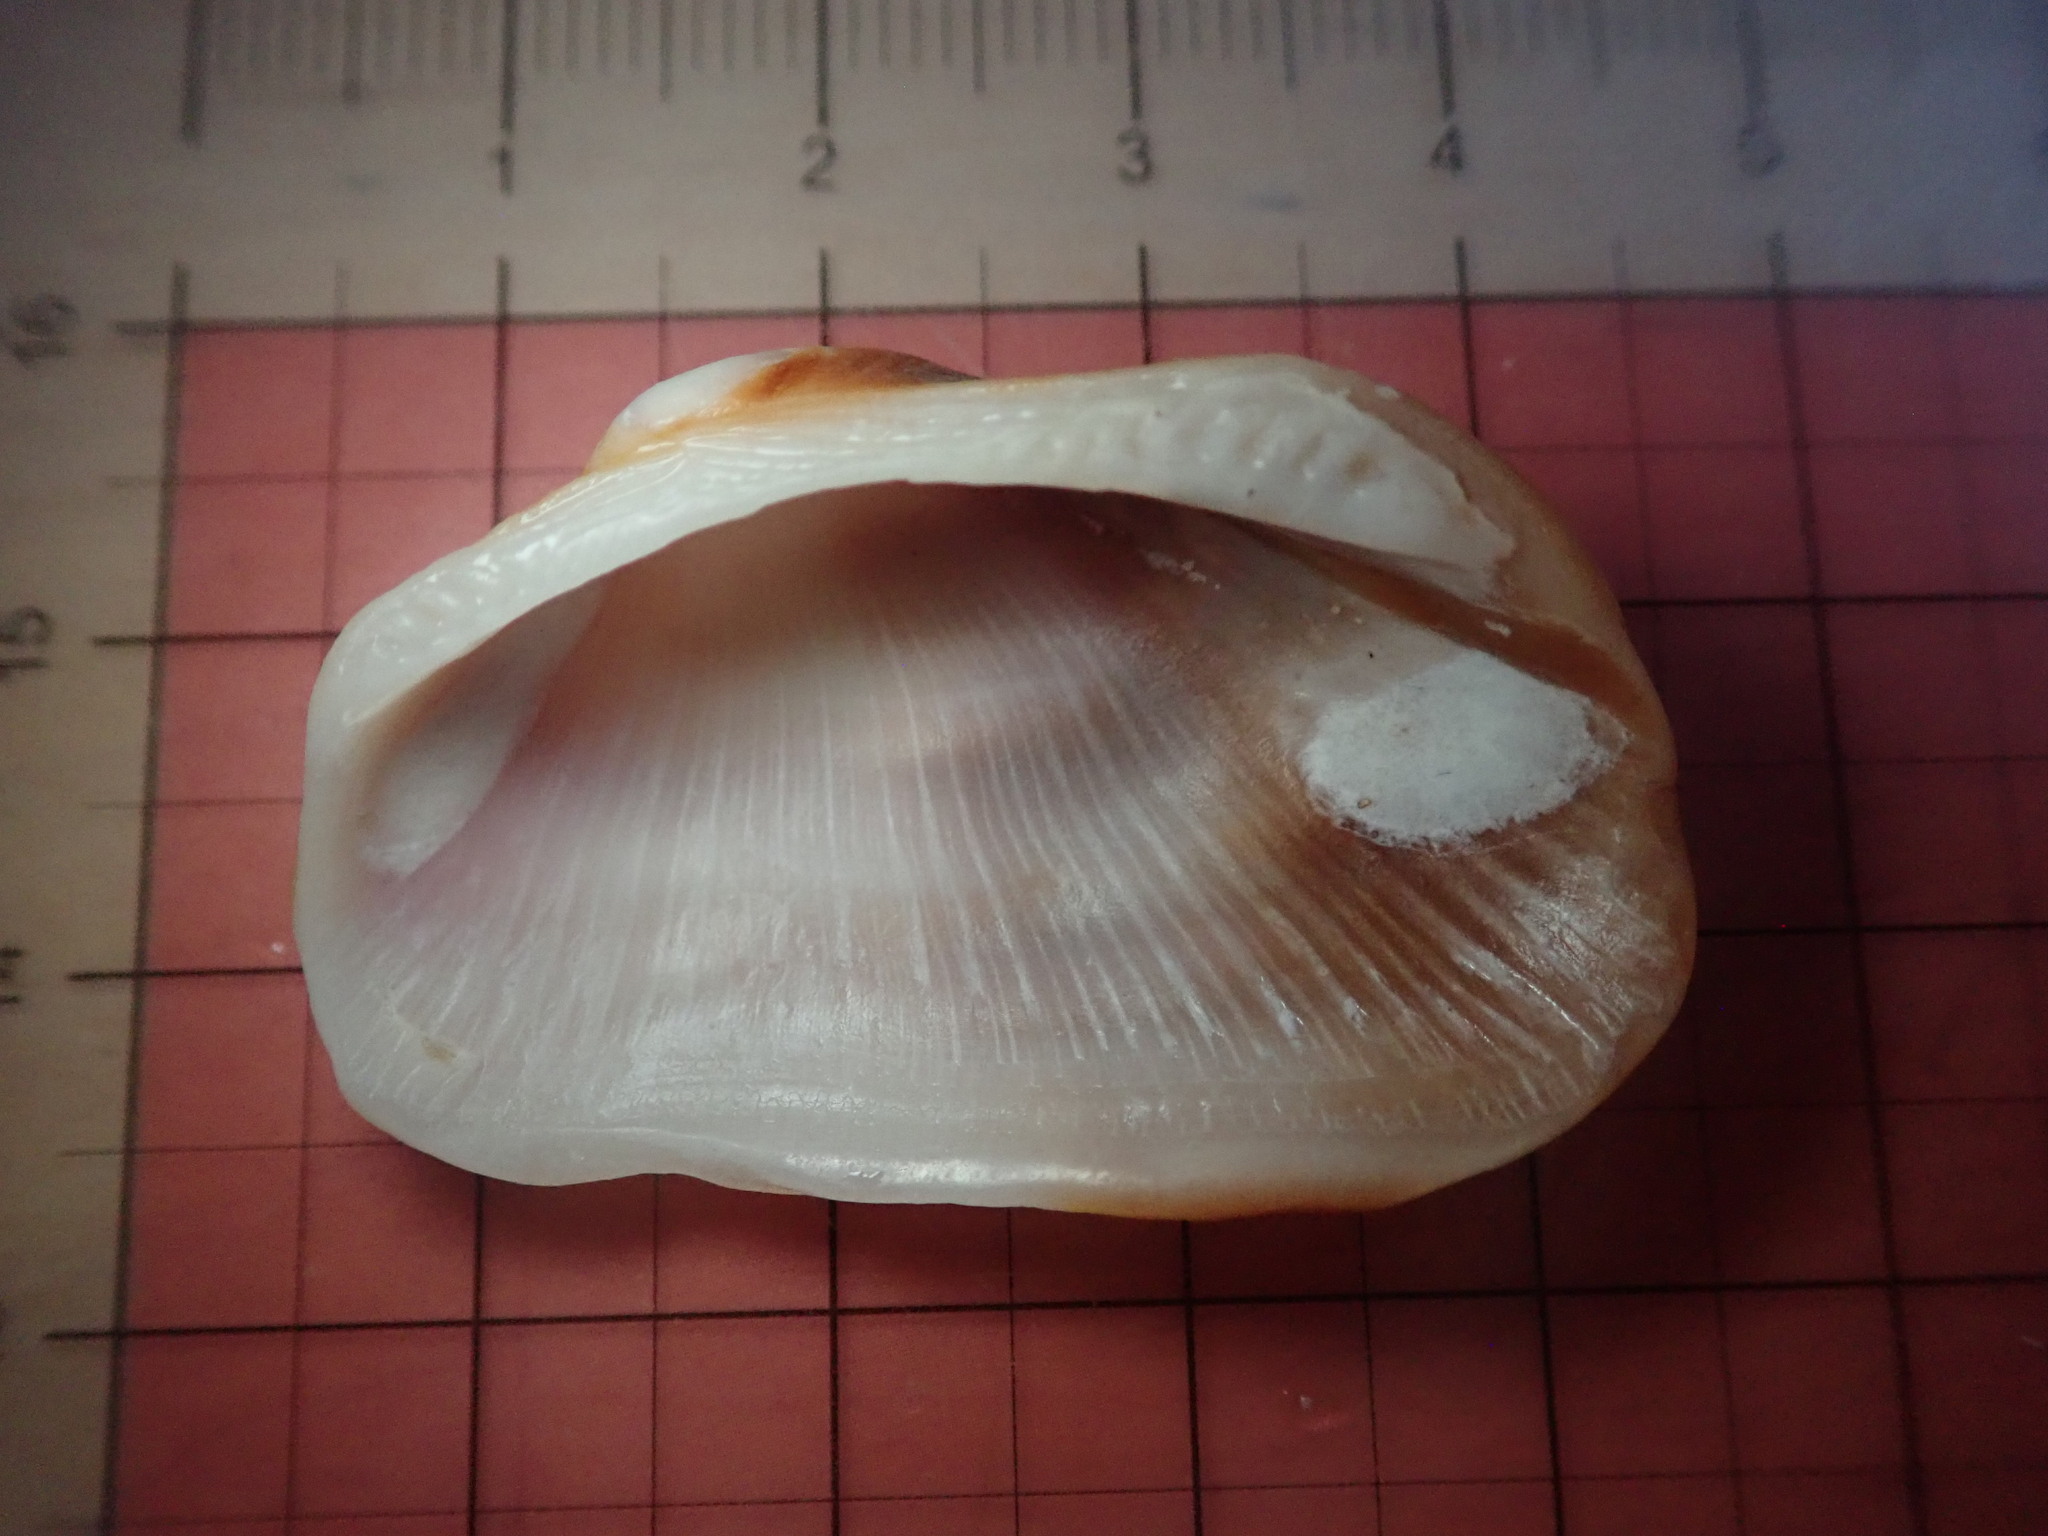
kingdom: Animalia
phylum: Mollusca
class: Bivalvia
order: Arcida
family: Arcidae
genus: Barbatia
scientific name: Barbatia lurida
